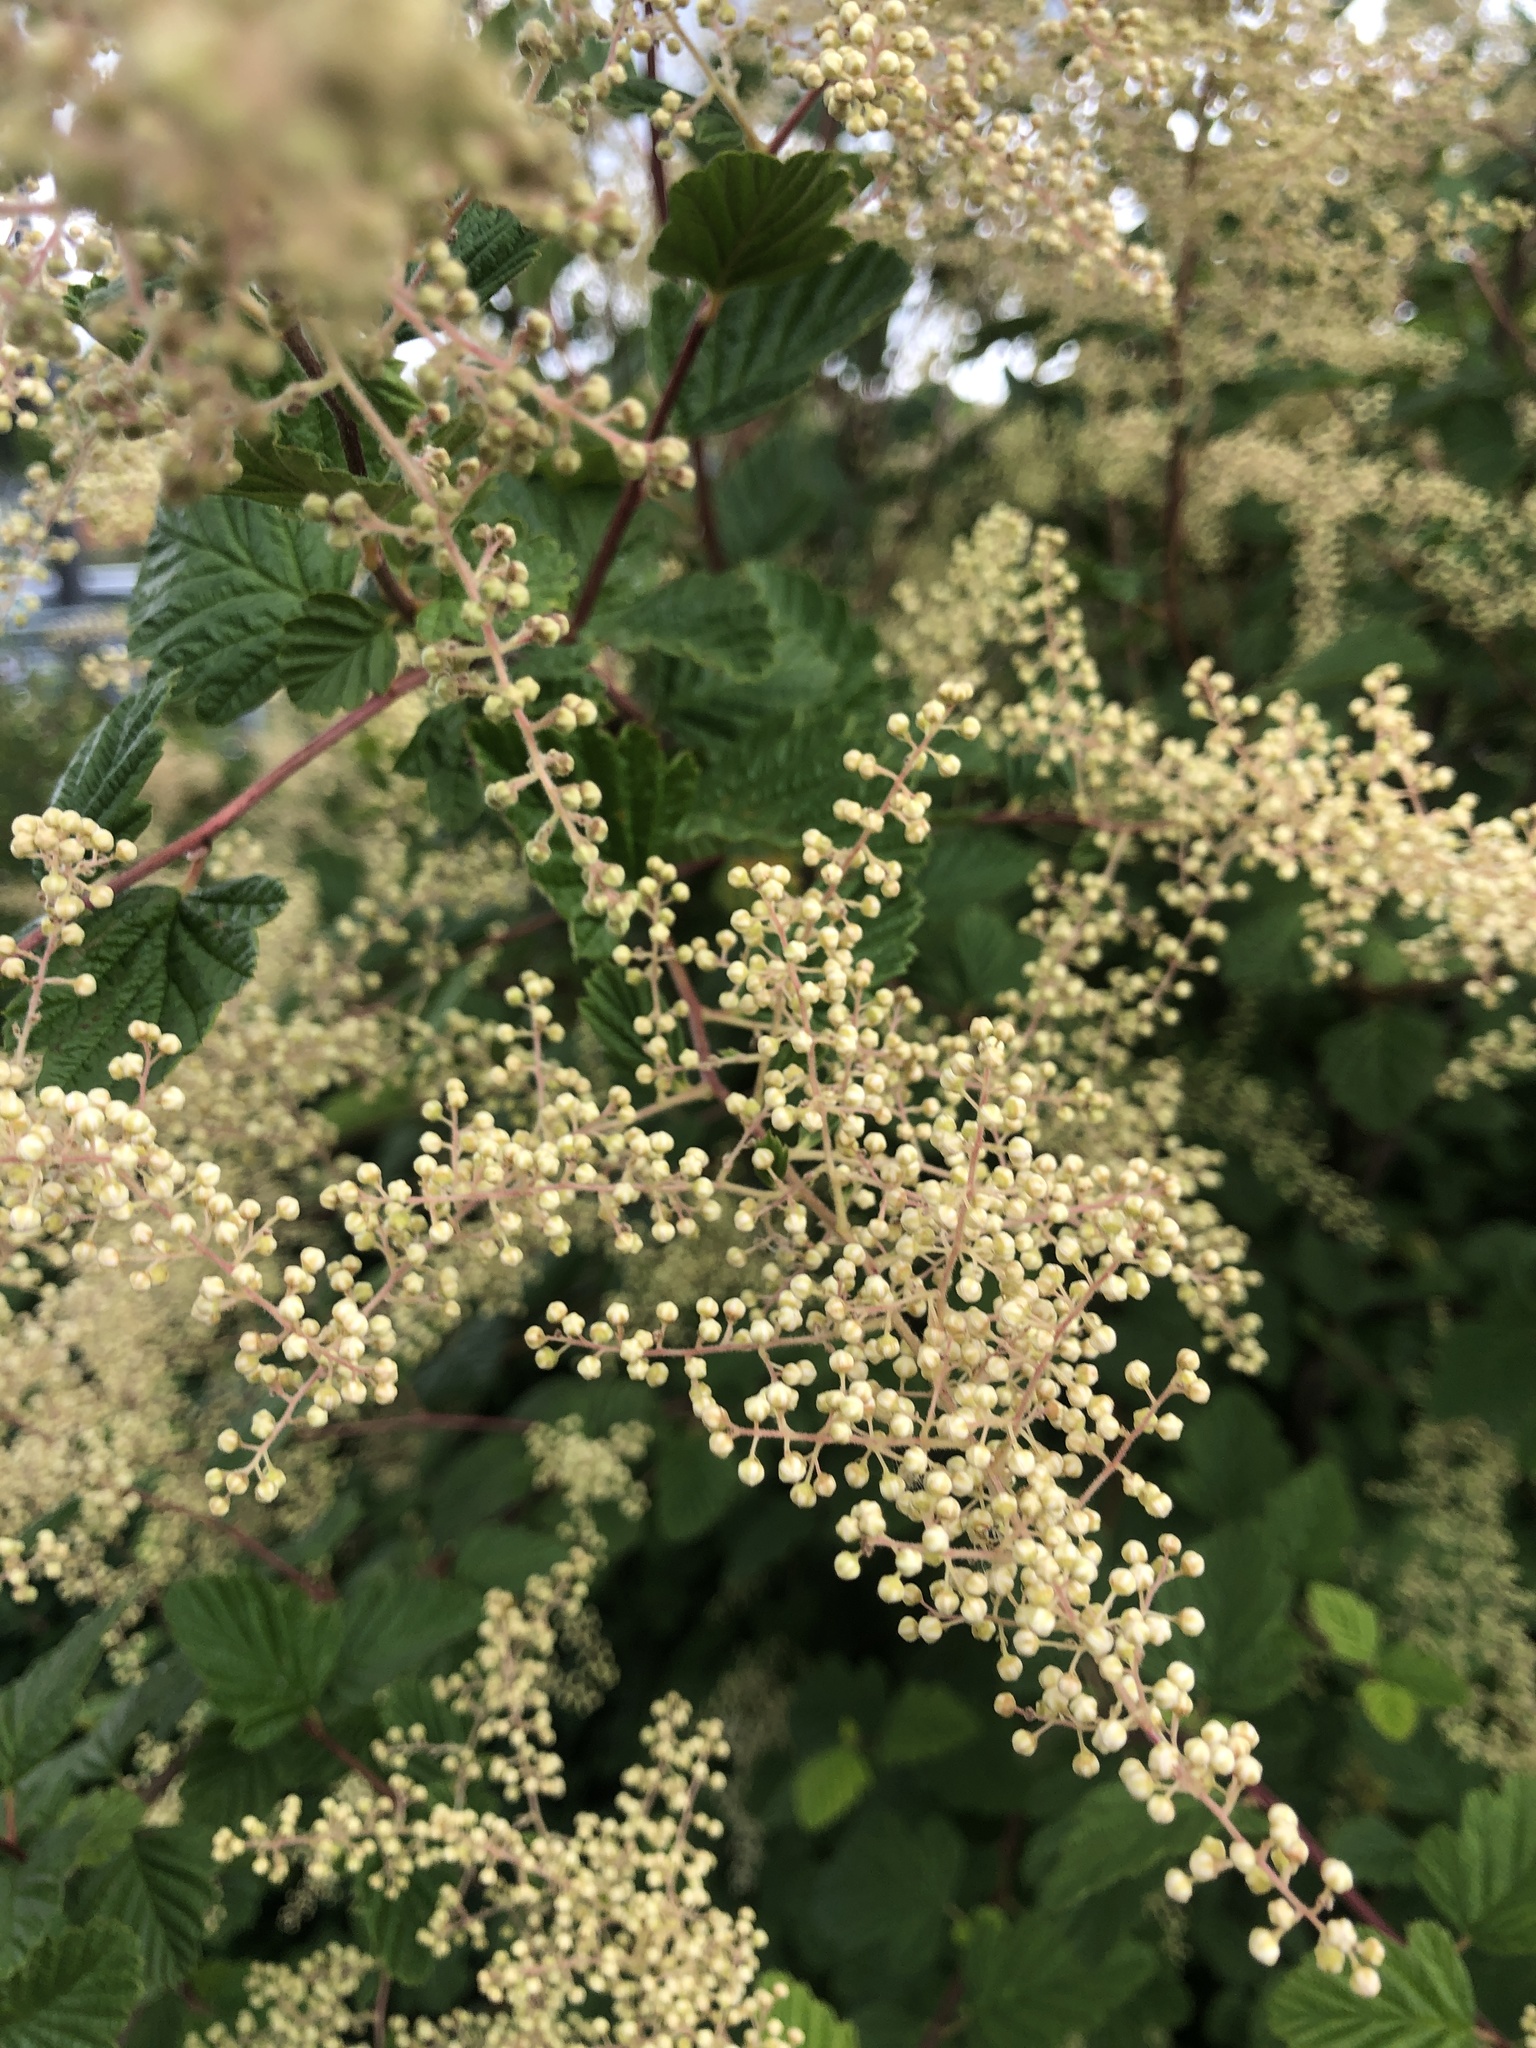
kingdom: Plantae
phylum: Tracheophyta
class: Magnoliopsida
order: Rosales
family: Rosaceae
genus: Holodiscus
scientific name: Holodiscus discolor
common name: Oceanspray
